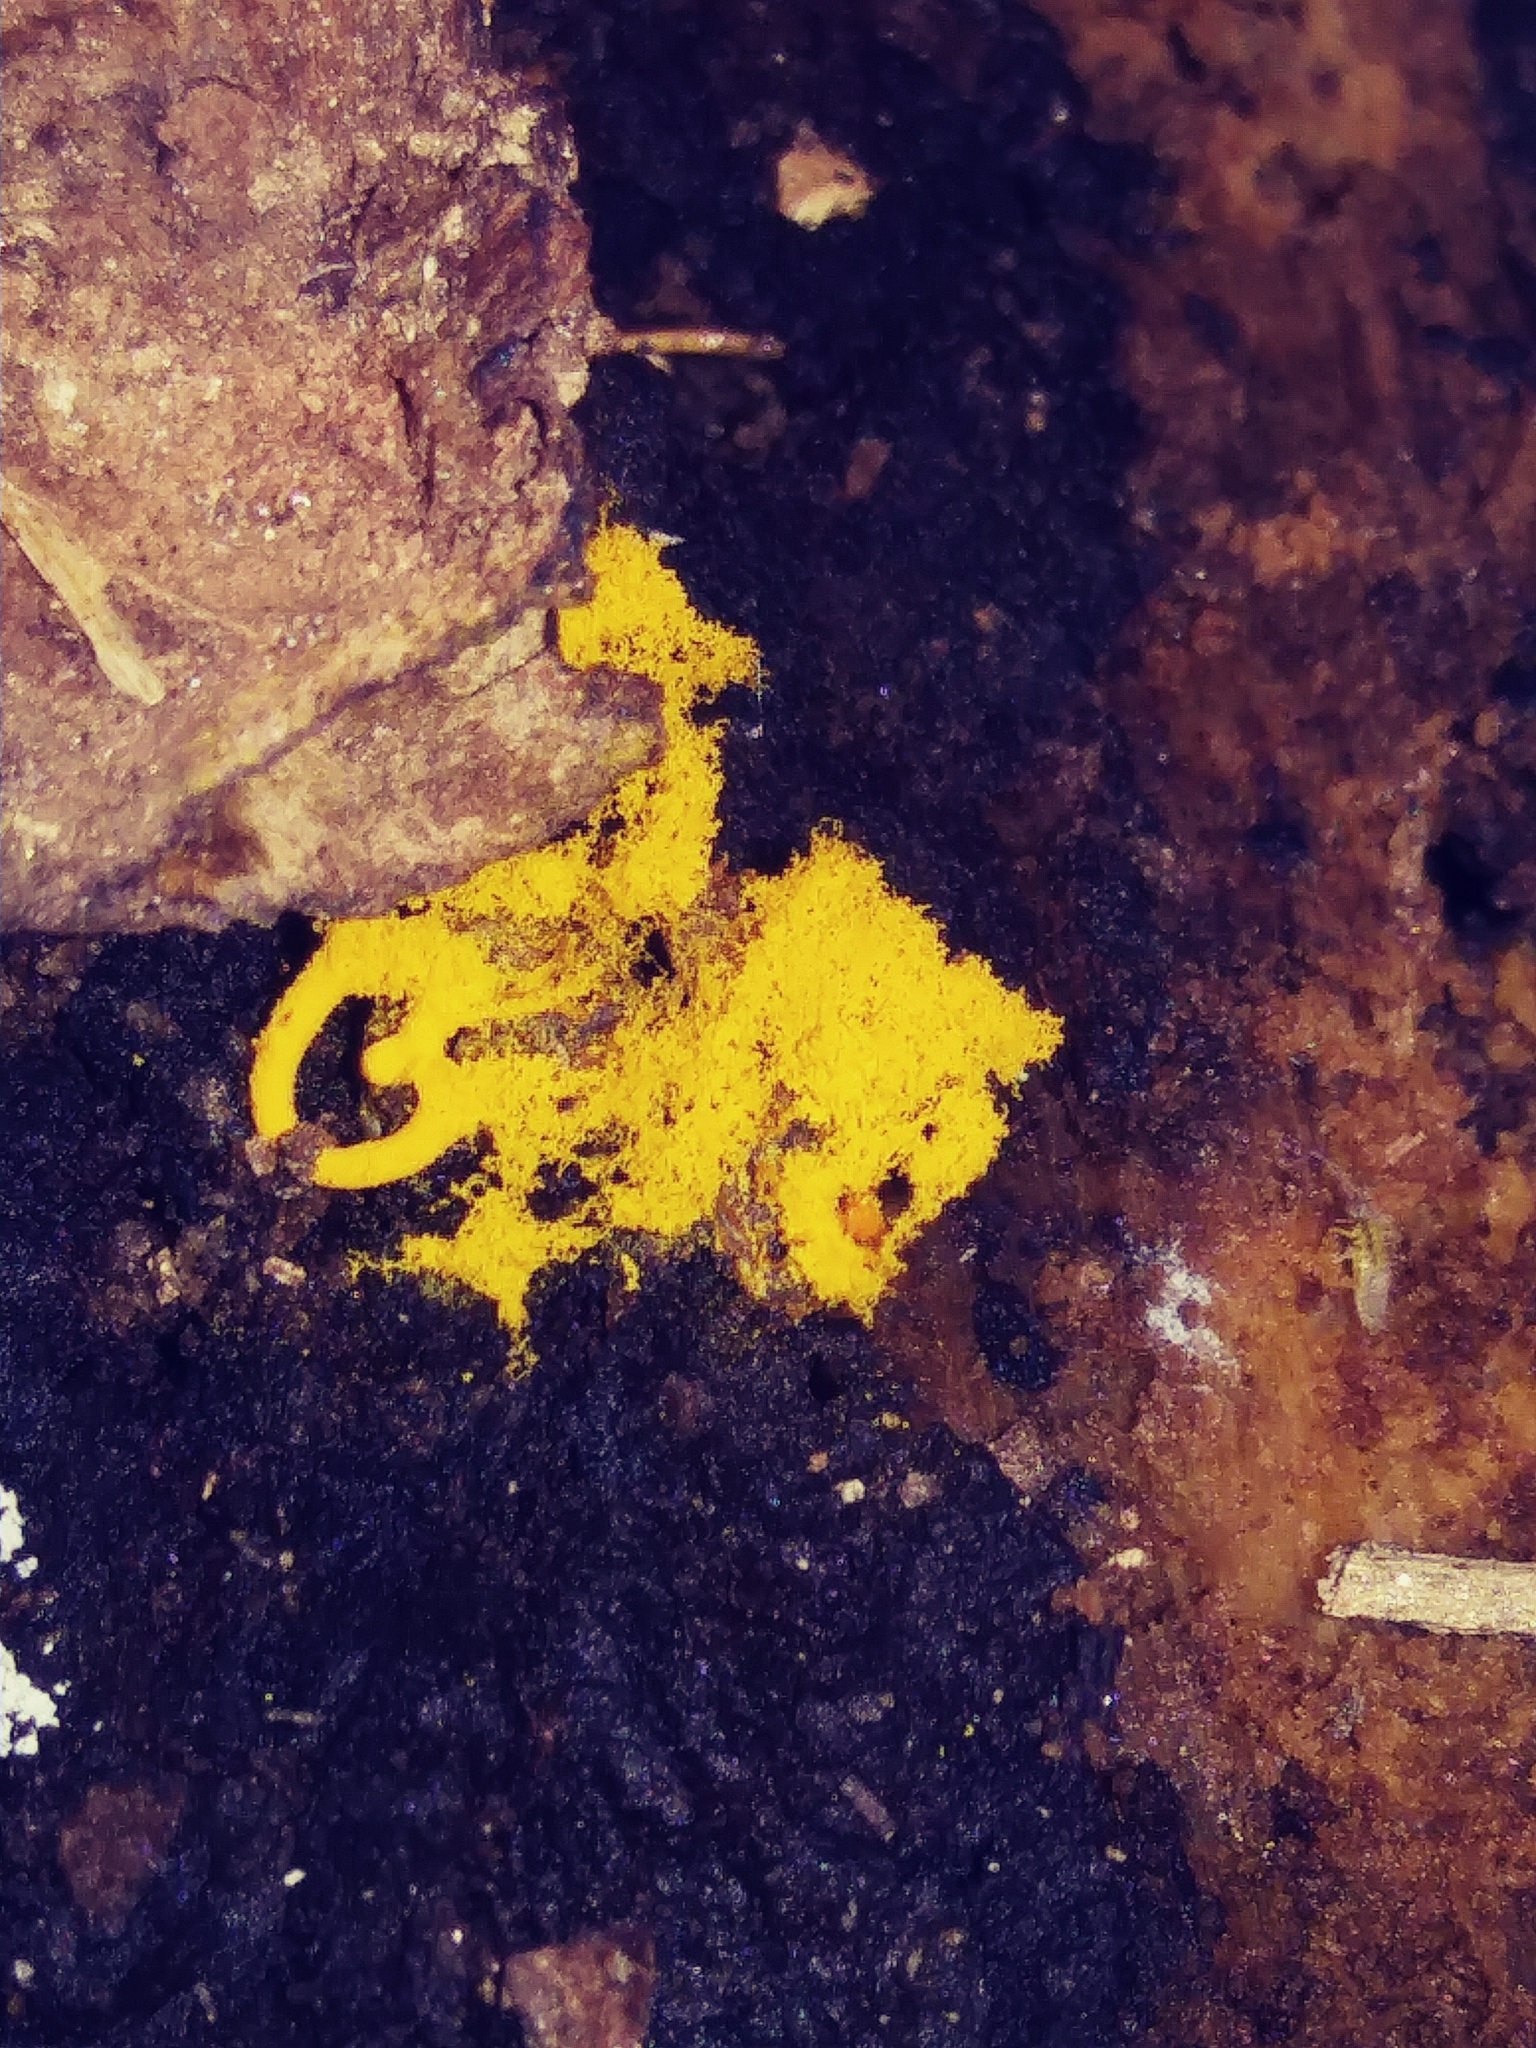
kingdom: Protozoa
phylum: Mycetozoa
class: Myxomycetes
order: Trichiales
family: Arcyriaceae
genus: Hemitrichia
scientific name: Hemitrichia serpula
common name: Pretzel slime mold
